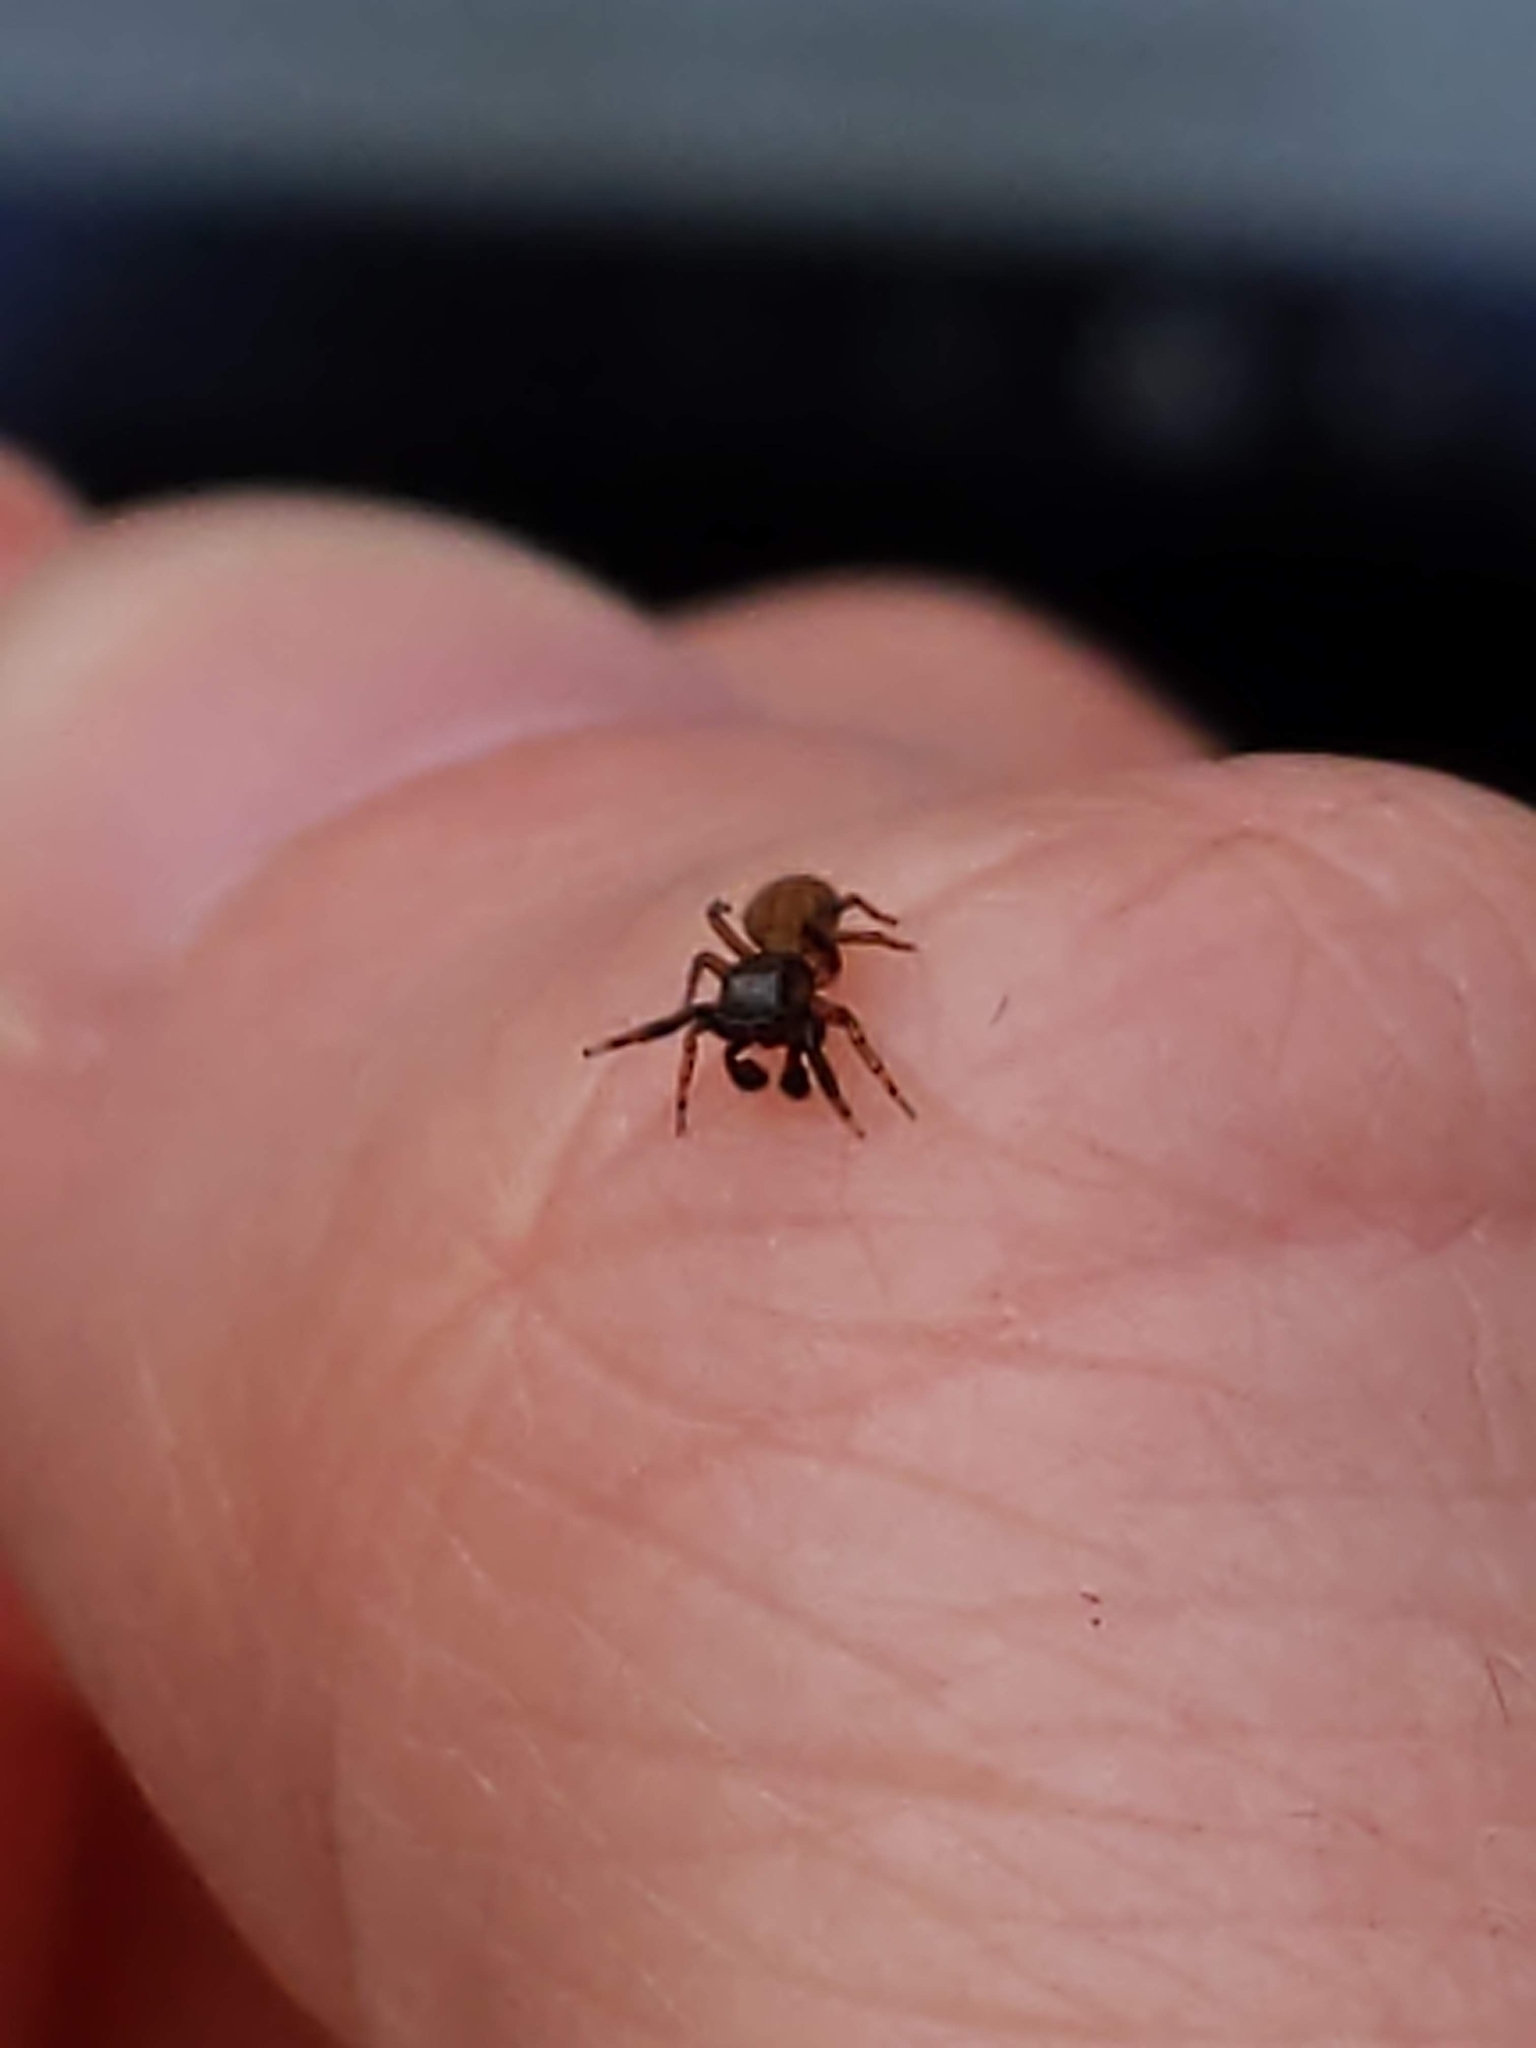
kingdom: Animalia
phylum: Arthropoda
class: Arachnida
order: Araneae
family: Salticidae
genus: Neon
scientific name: Neon
